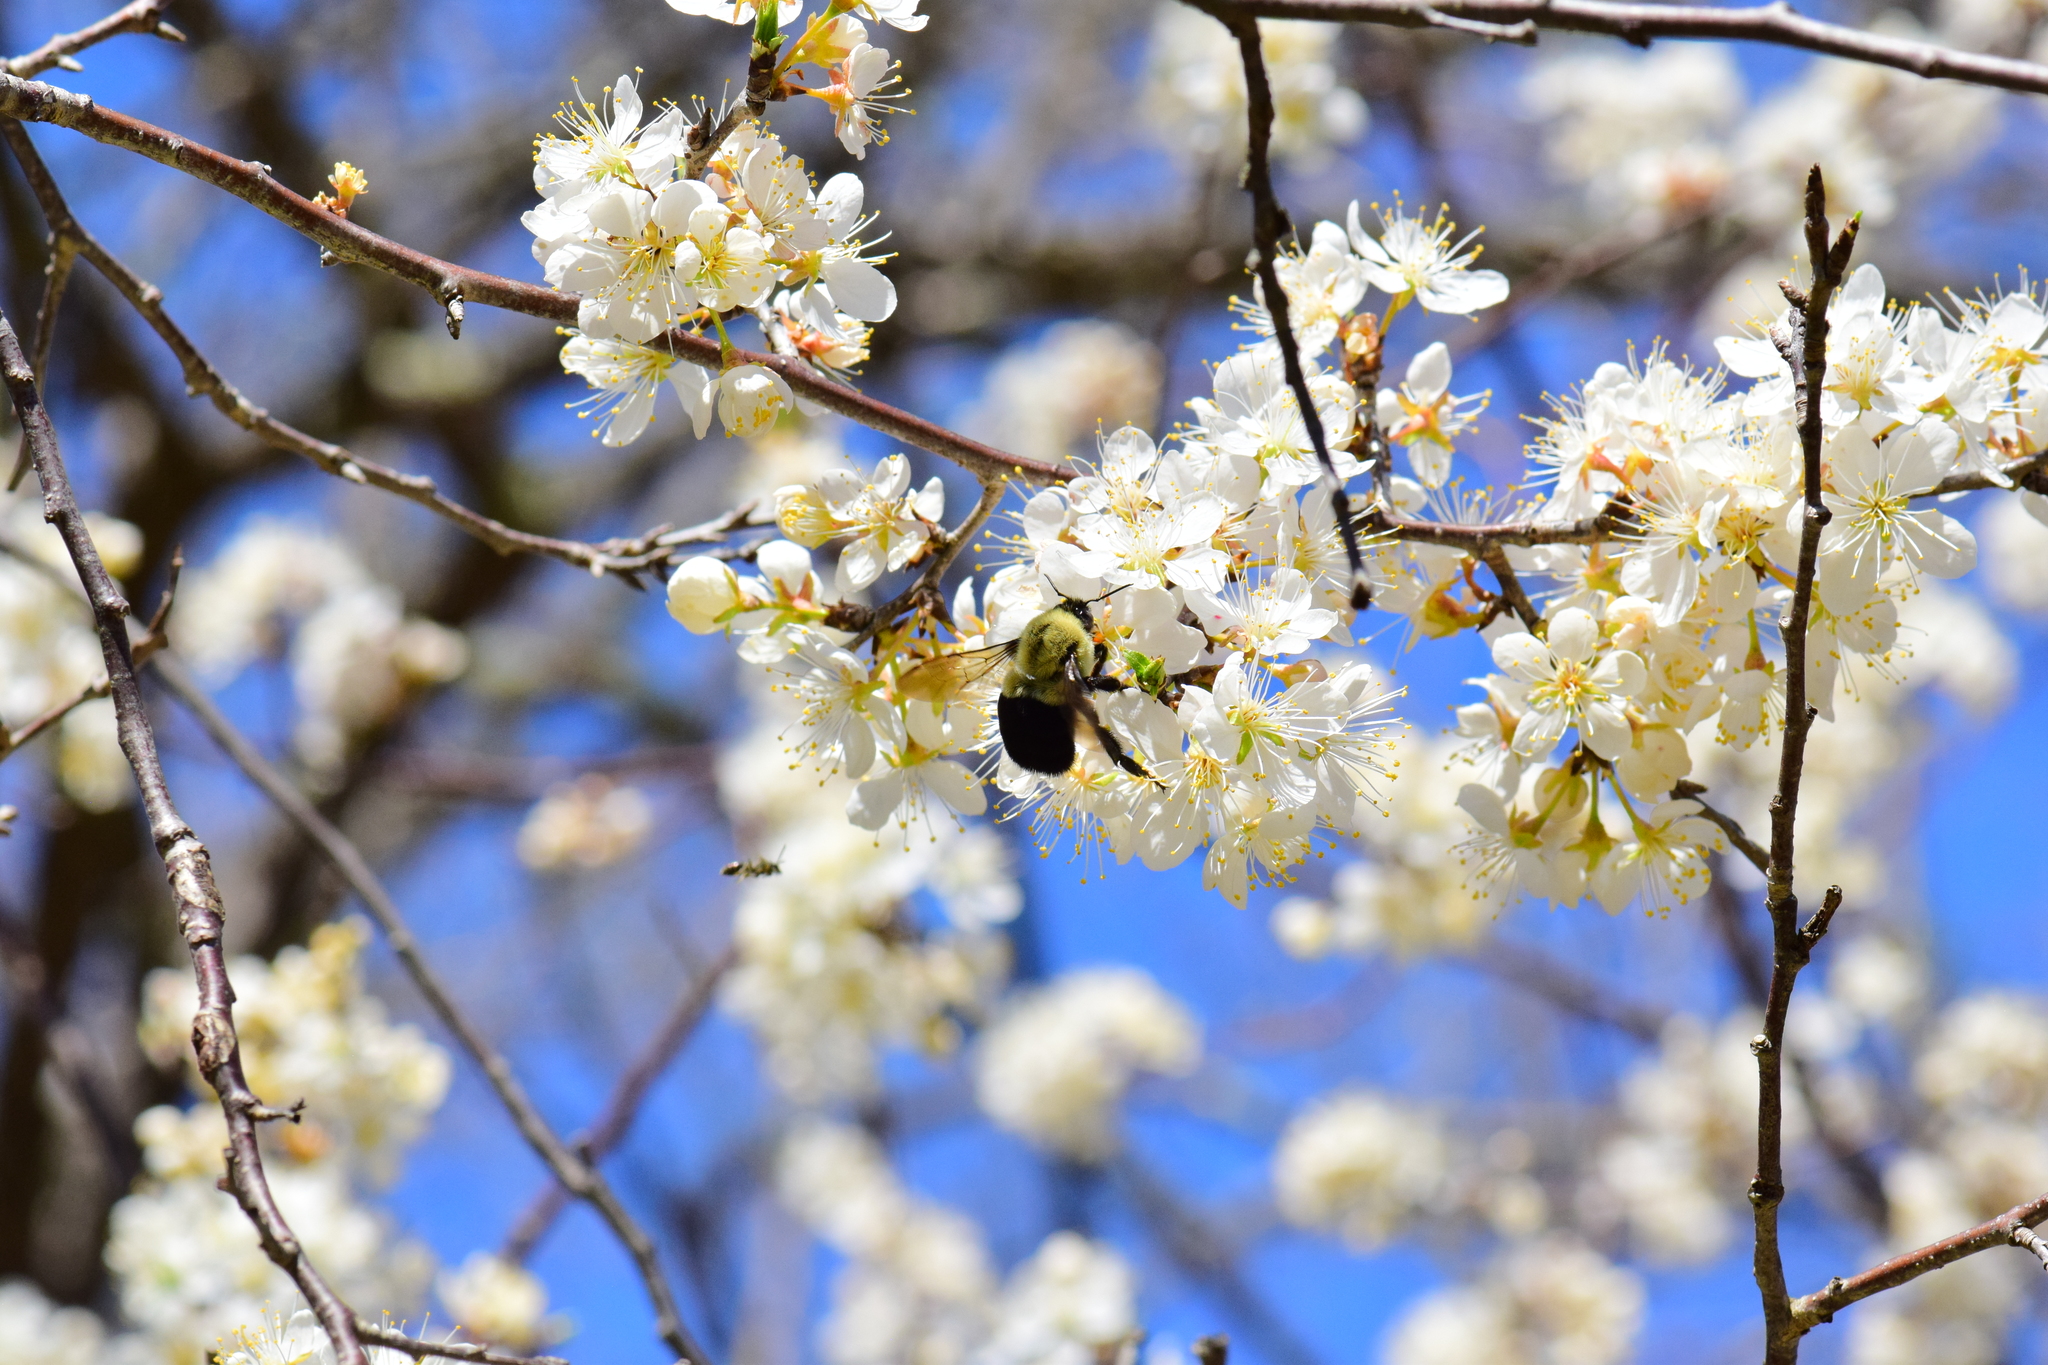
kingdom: Animalia
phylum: Arthropoda
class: Insecta
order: Hymenoptera
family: Apidae
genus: Bombus
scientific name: Bombus impatiens
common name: Common eastern bumble bee
